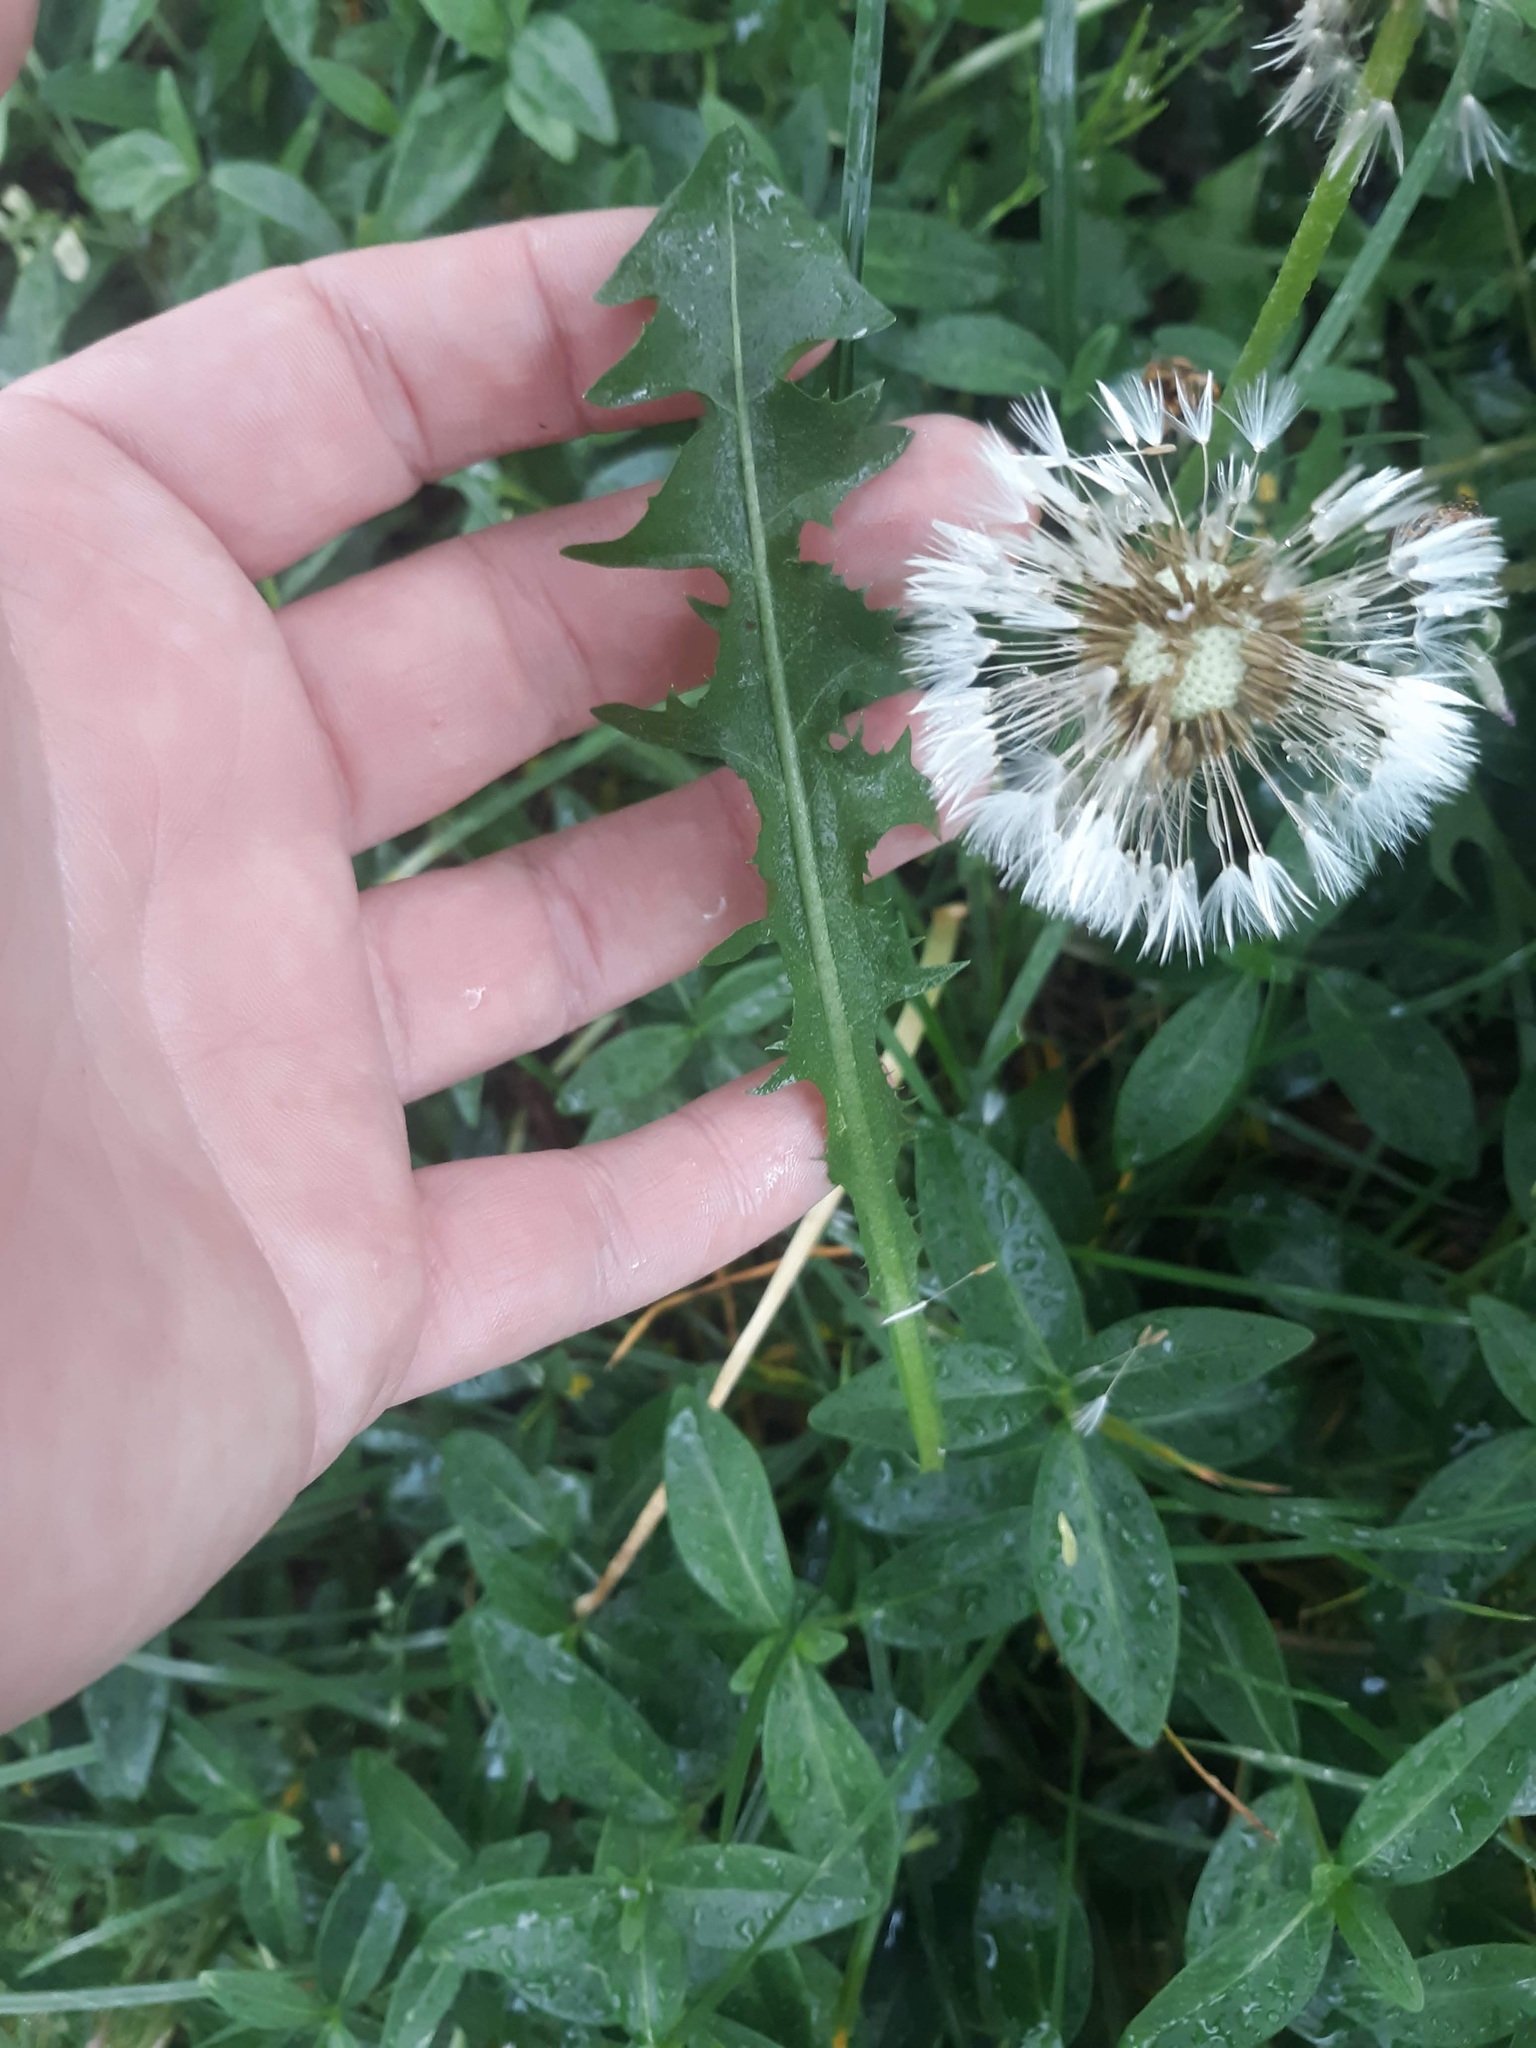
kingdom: Plantae
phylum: Tracheophyta
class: Magnoliopsida
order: Asterales
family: Asteraceae
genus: Taraxacum
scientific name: Taraxacum officinale
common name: Common dandelion
